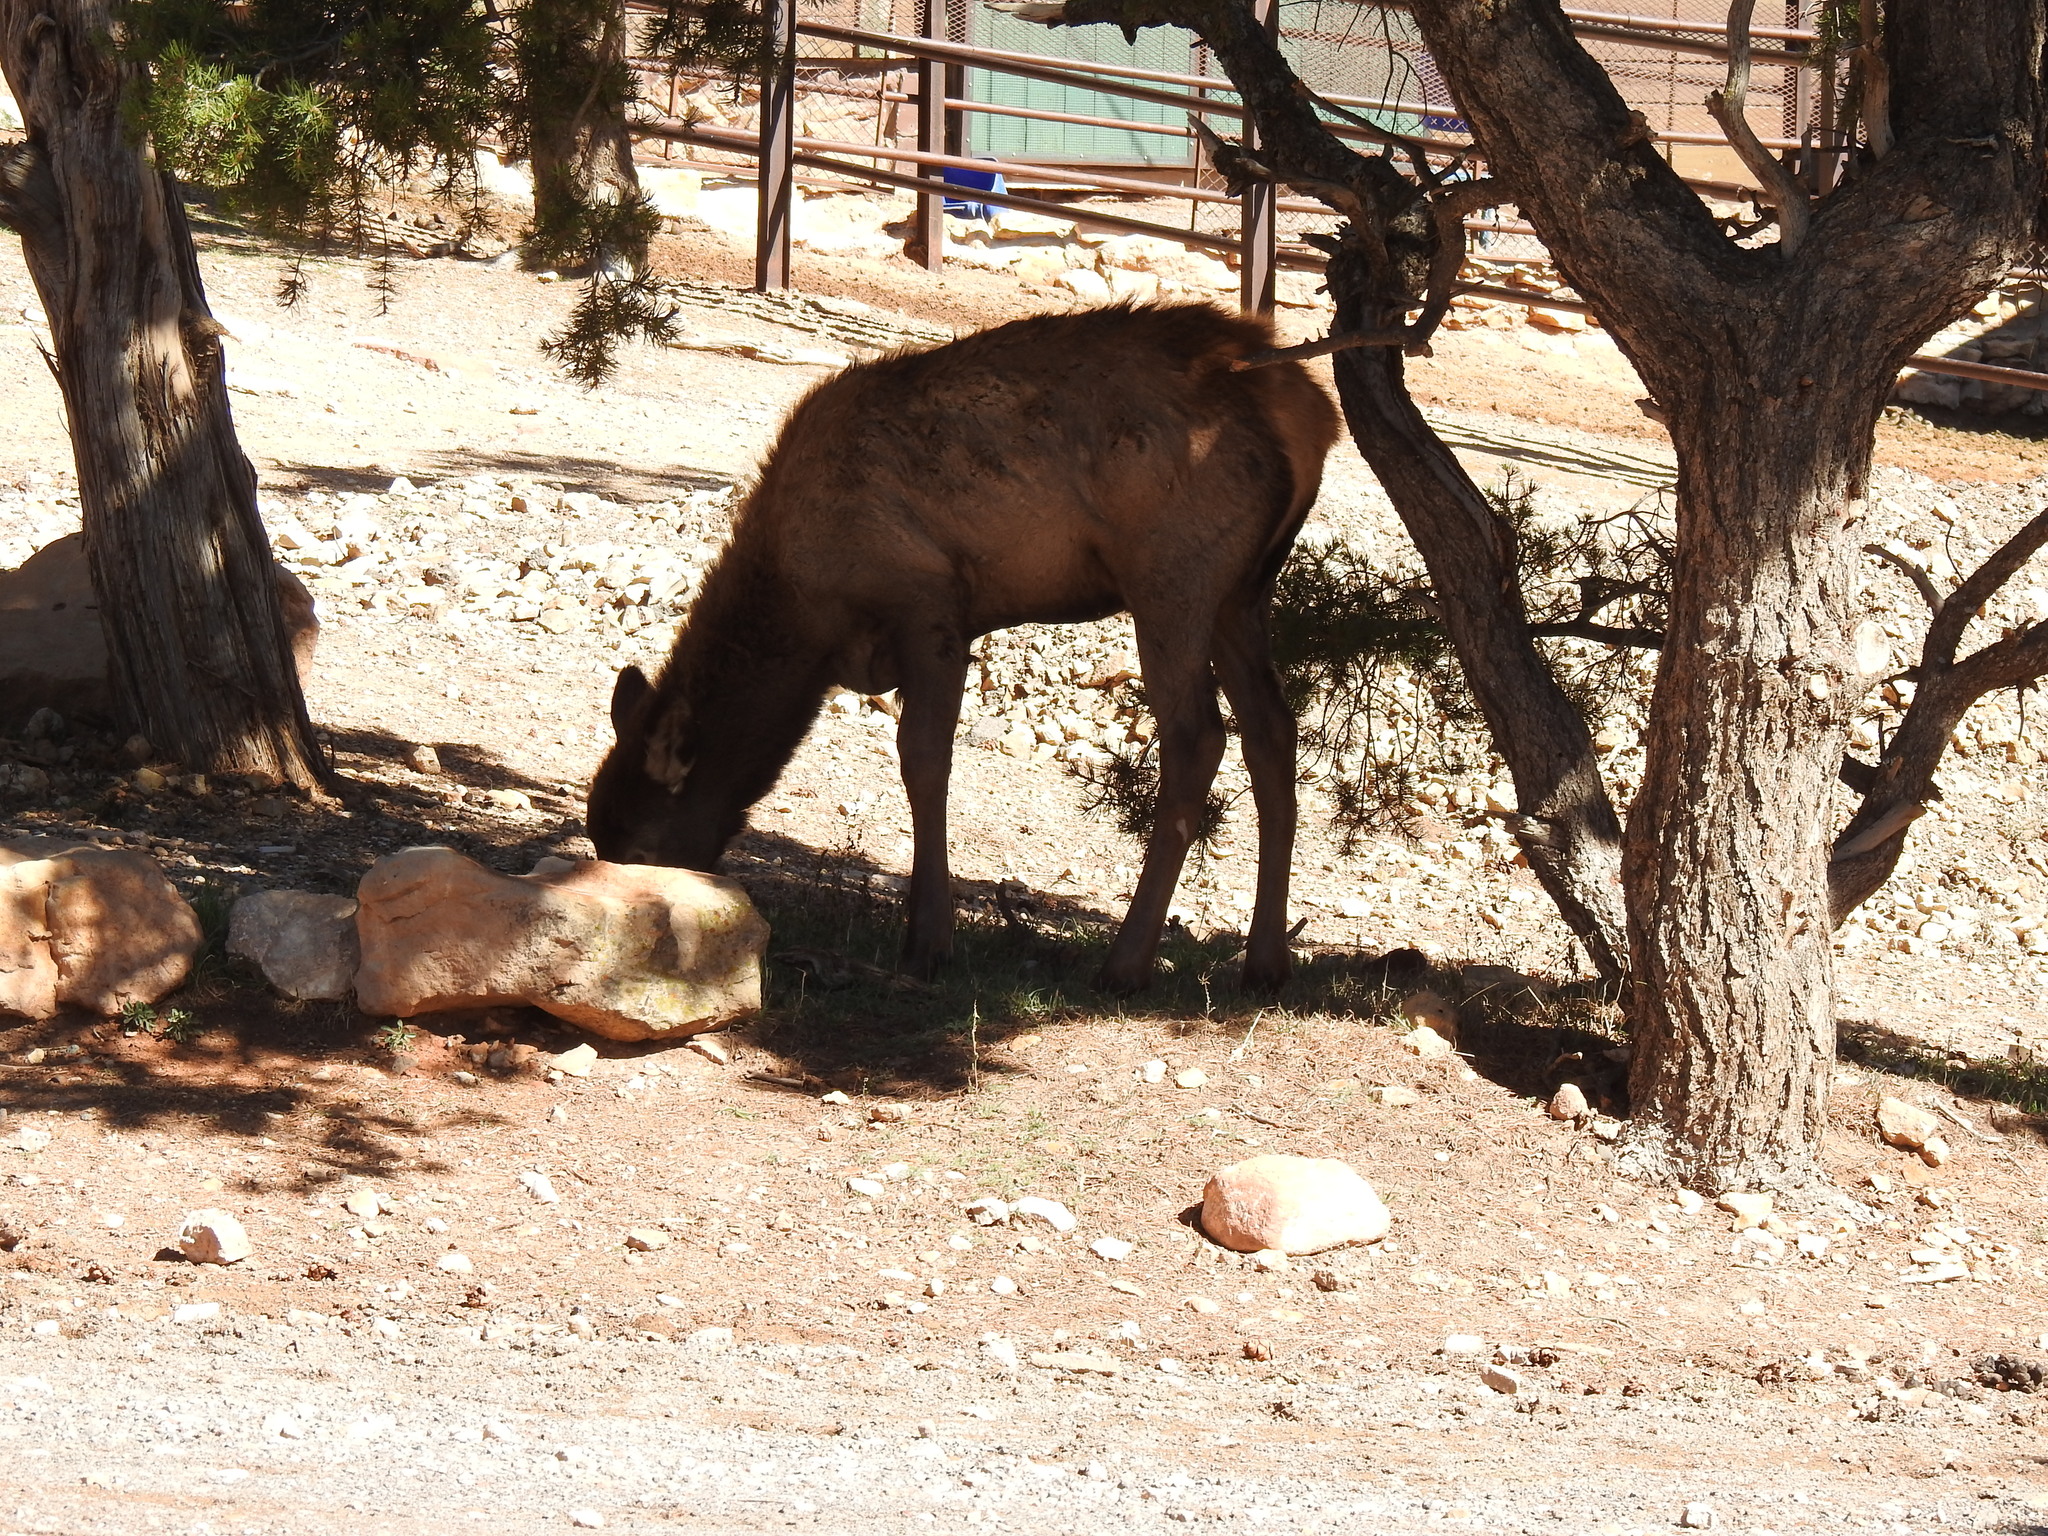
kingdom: Animalia
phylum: Chordata
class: Mammalia
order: Artiodactyla
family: Cervidae
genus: Cervus
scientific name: Cervus elaphus
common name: Red deer
